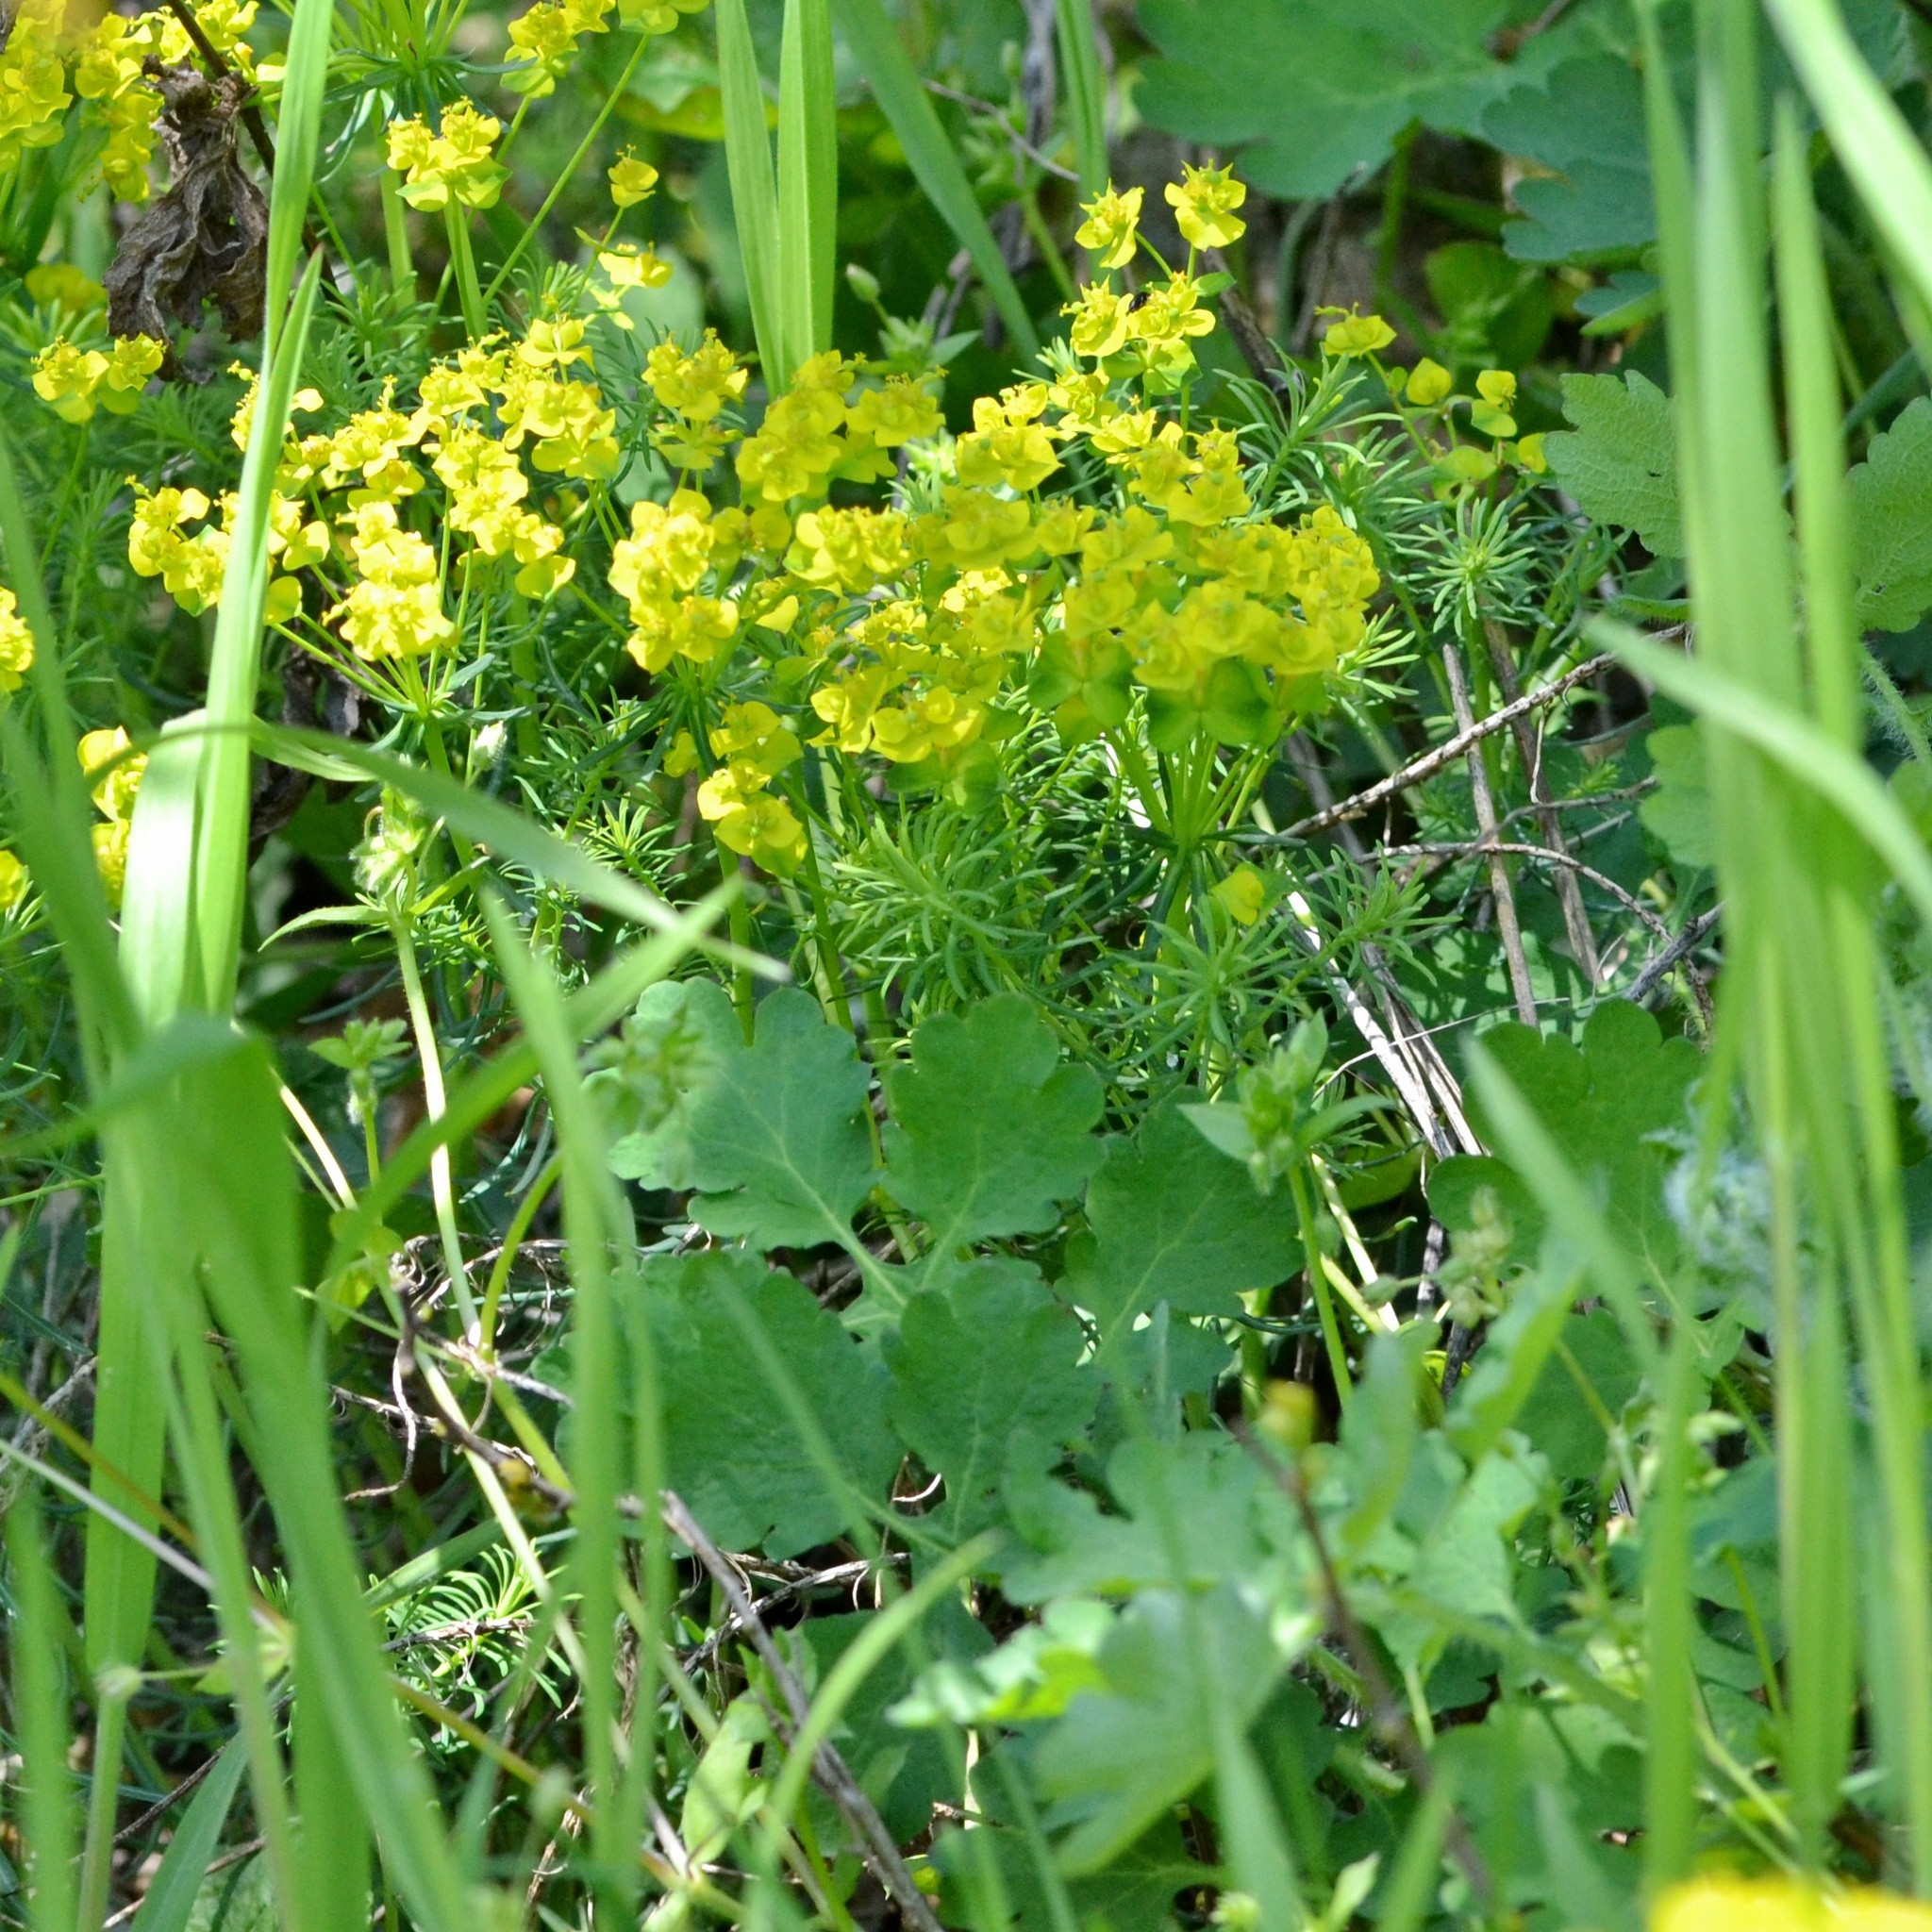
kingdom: Plantae
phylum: Tracheophyta
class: Magnoliopsida
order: Malpighiales
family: Euphorbiaceae
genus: Euphorbia
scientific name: Euphorbia cyparissias
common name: Cypress spurge
